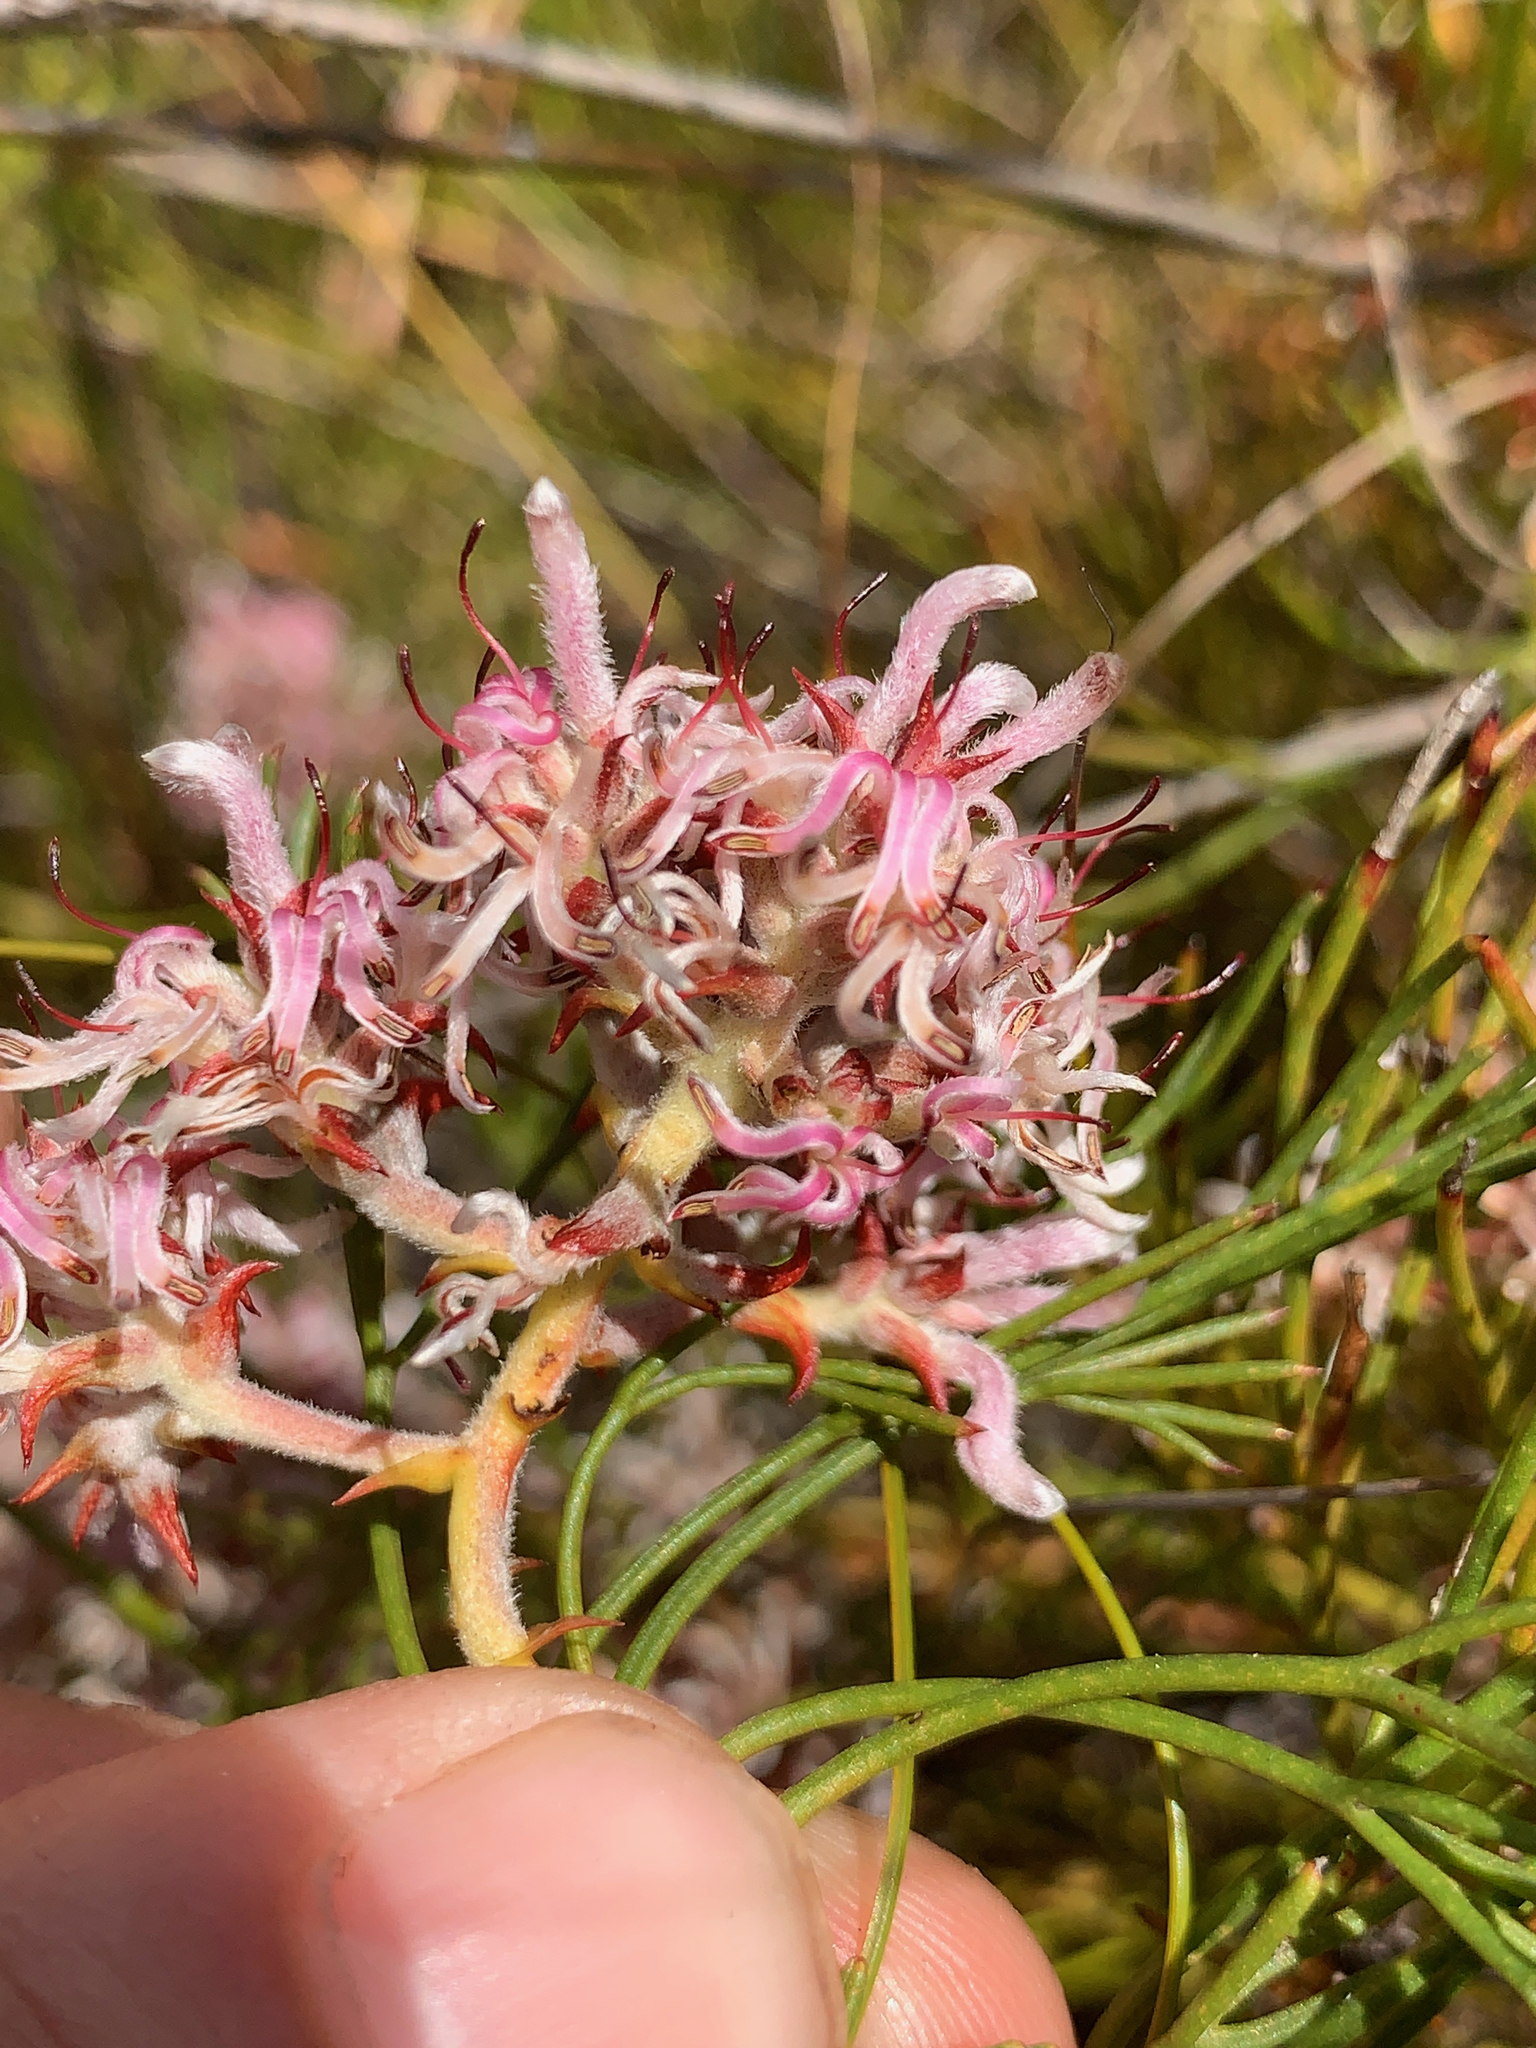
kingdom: Plantae
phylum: Tracheophyta
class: Magnoliopsida
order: Proteales
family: Proteaceae
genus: Serruria
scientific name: Serruria rubricaulis
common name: Red-stem spiderhead
